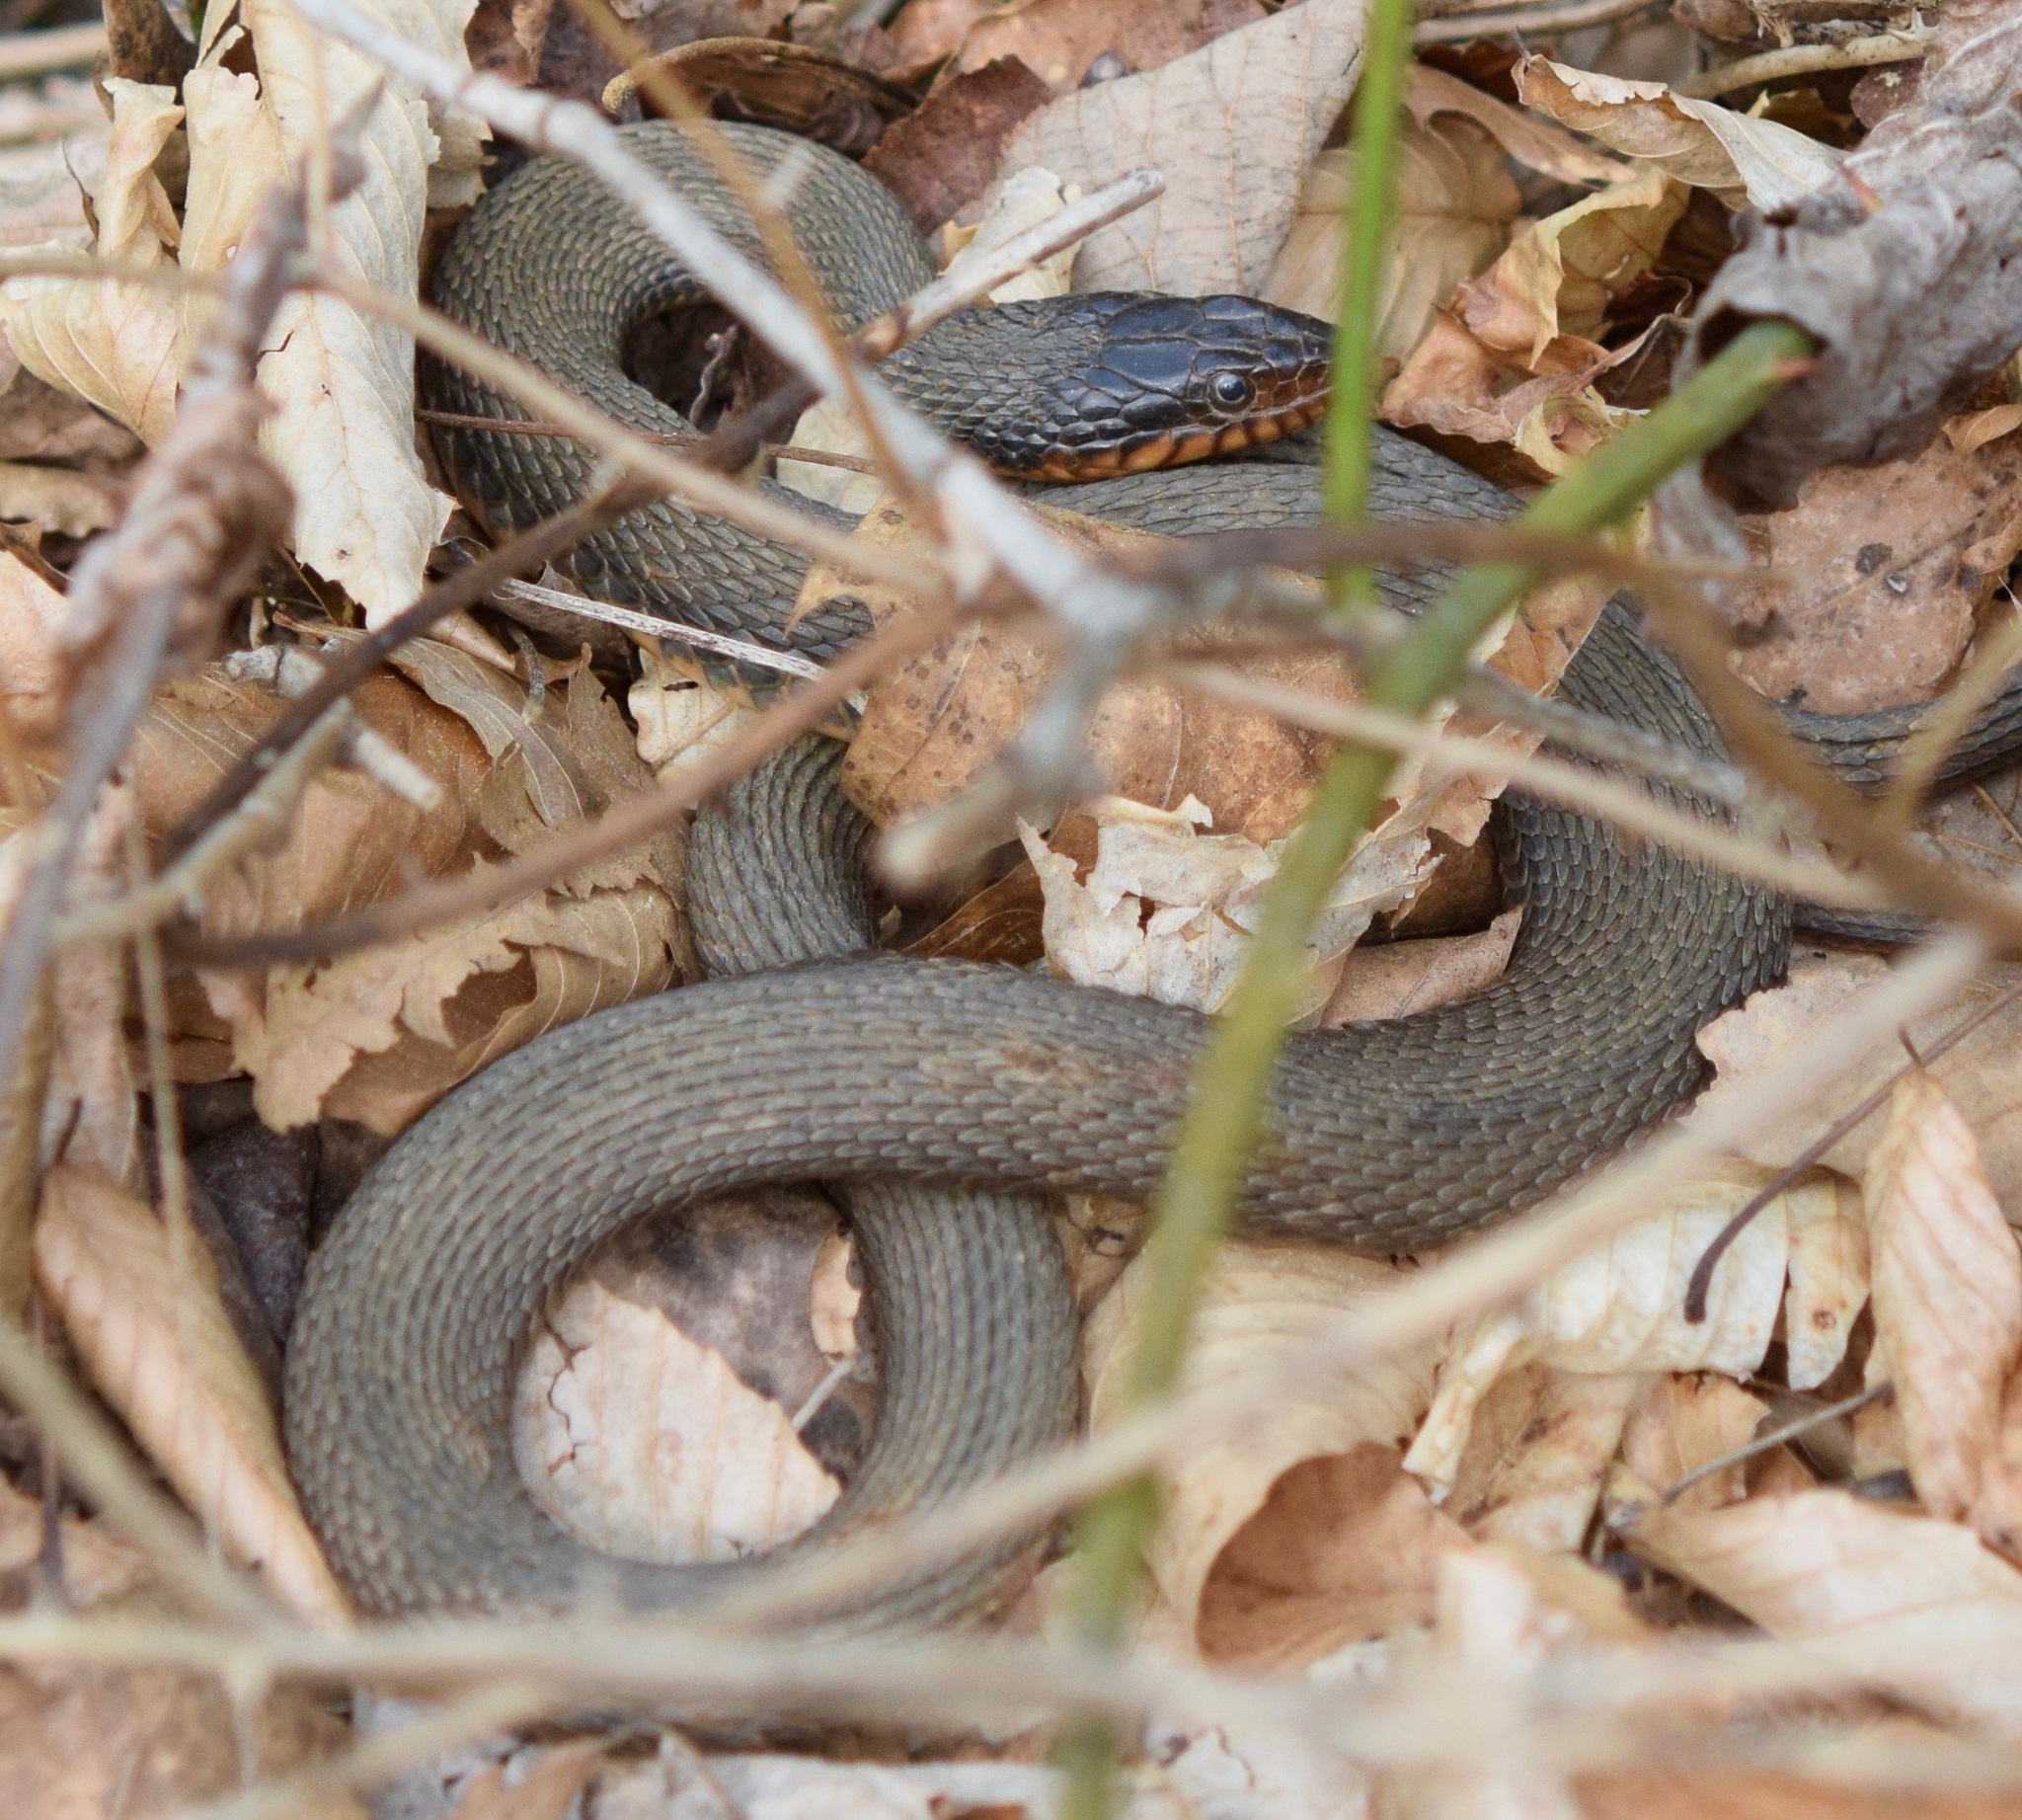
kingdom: Animalia
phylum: Chordata
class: Squamata
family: Colubridae
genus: Nerodia
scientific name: Nerodia erythrogaster
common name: Plainbelly water snake
